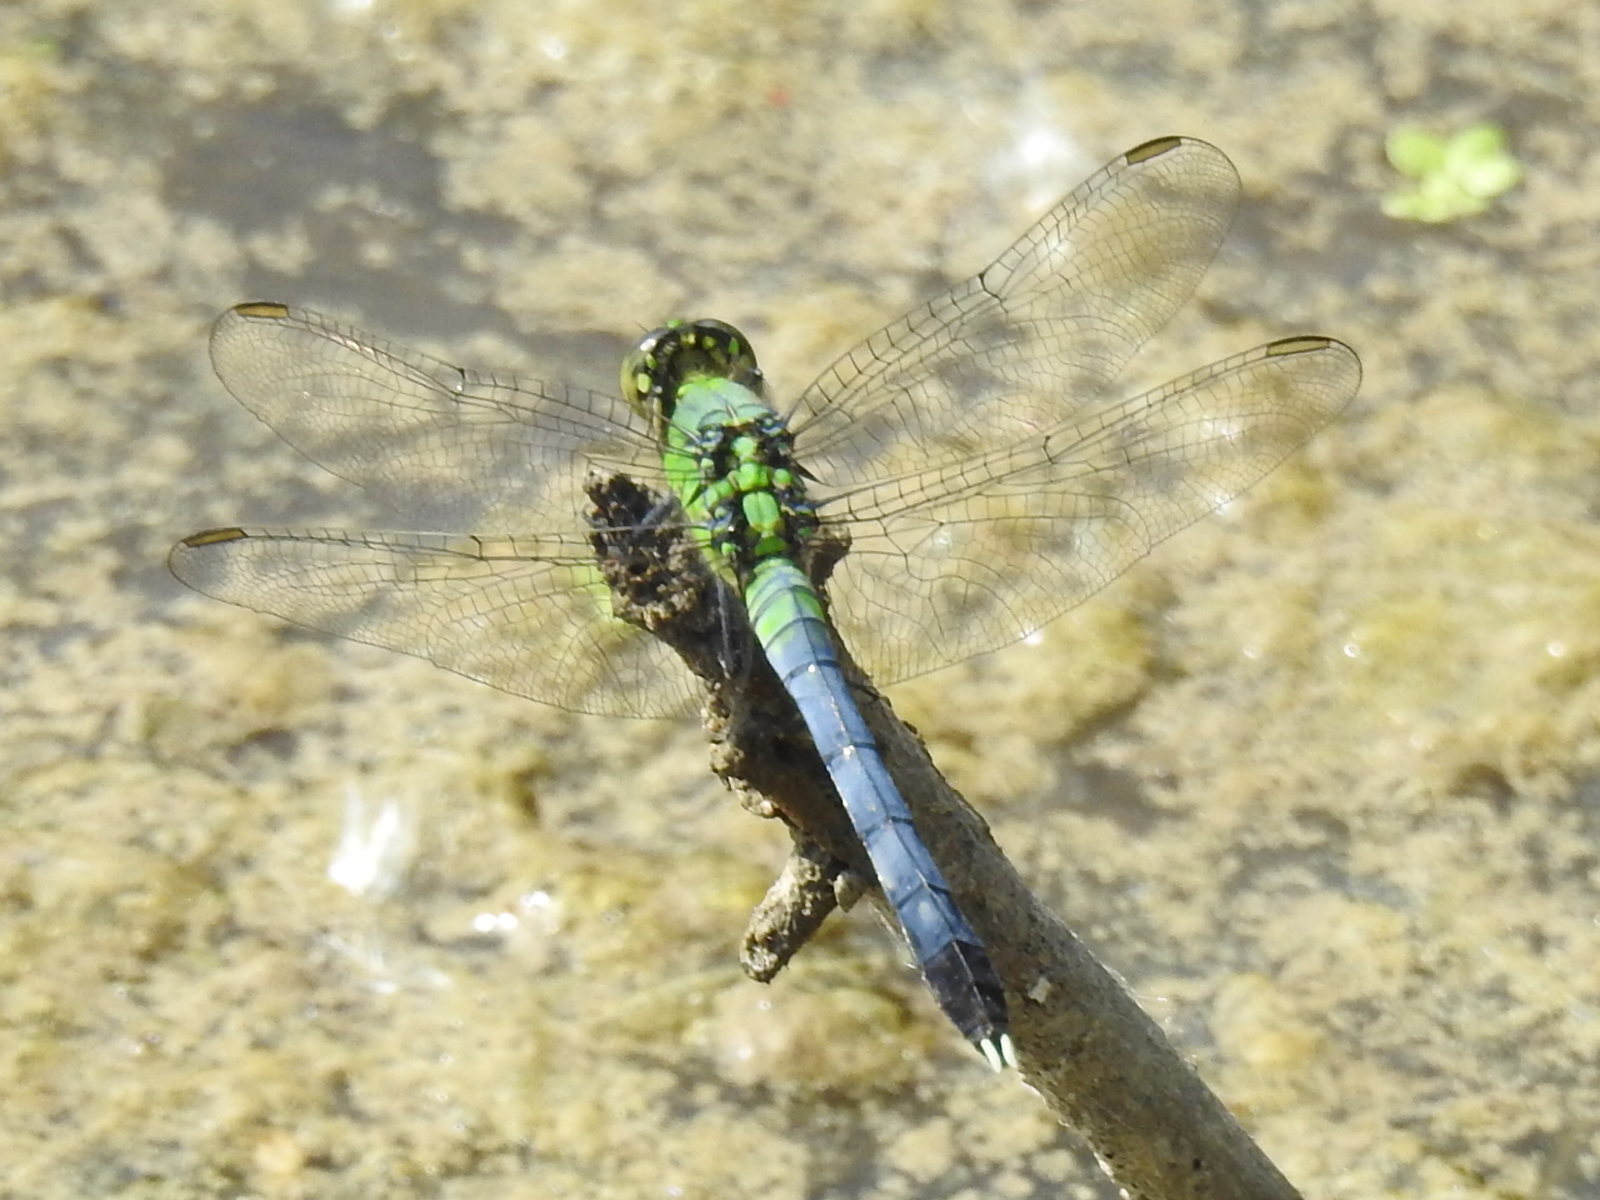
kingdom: Animalia
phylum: Arthropoda
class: Insecta
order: Odonata
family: Libellulidae
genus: Erythemis
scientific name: Erythemis simplicicollis
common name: Eastern pondhawk
